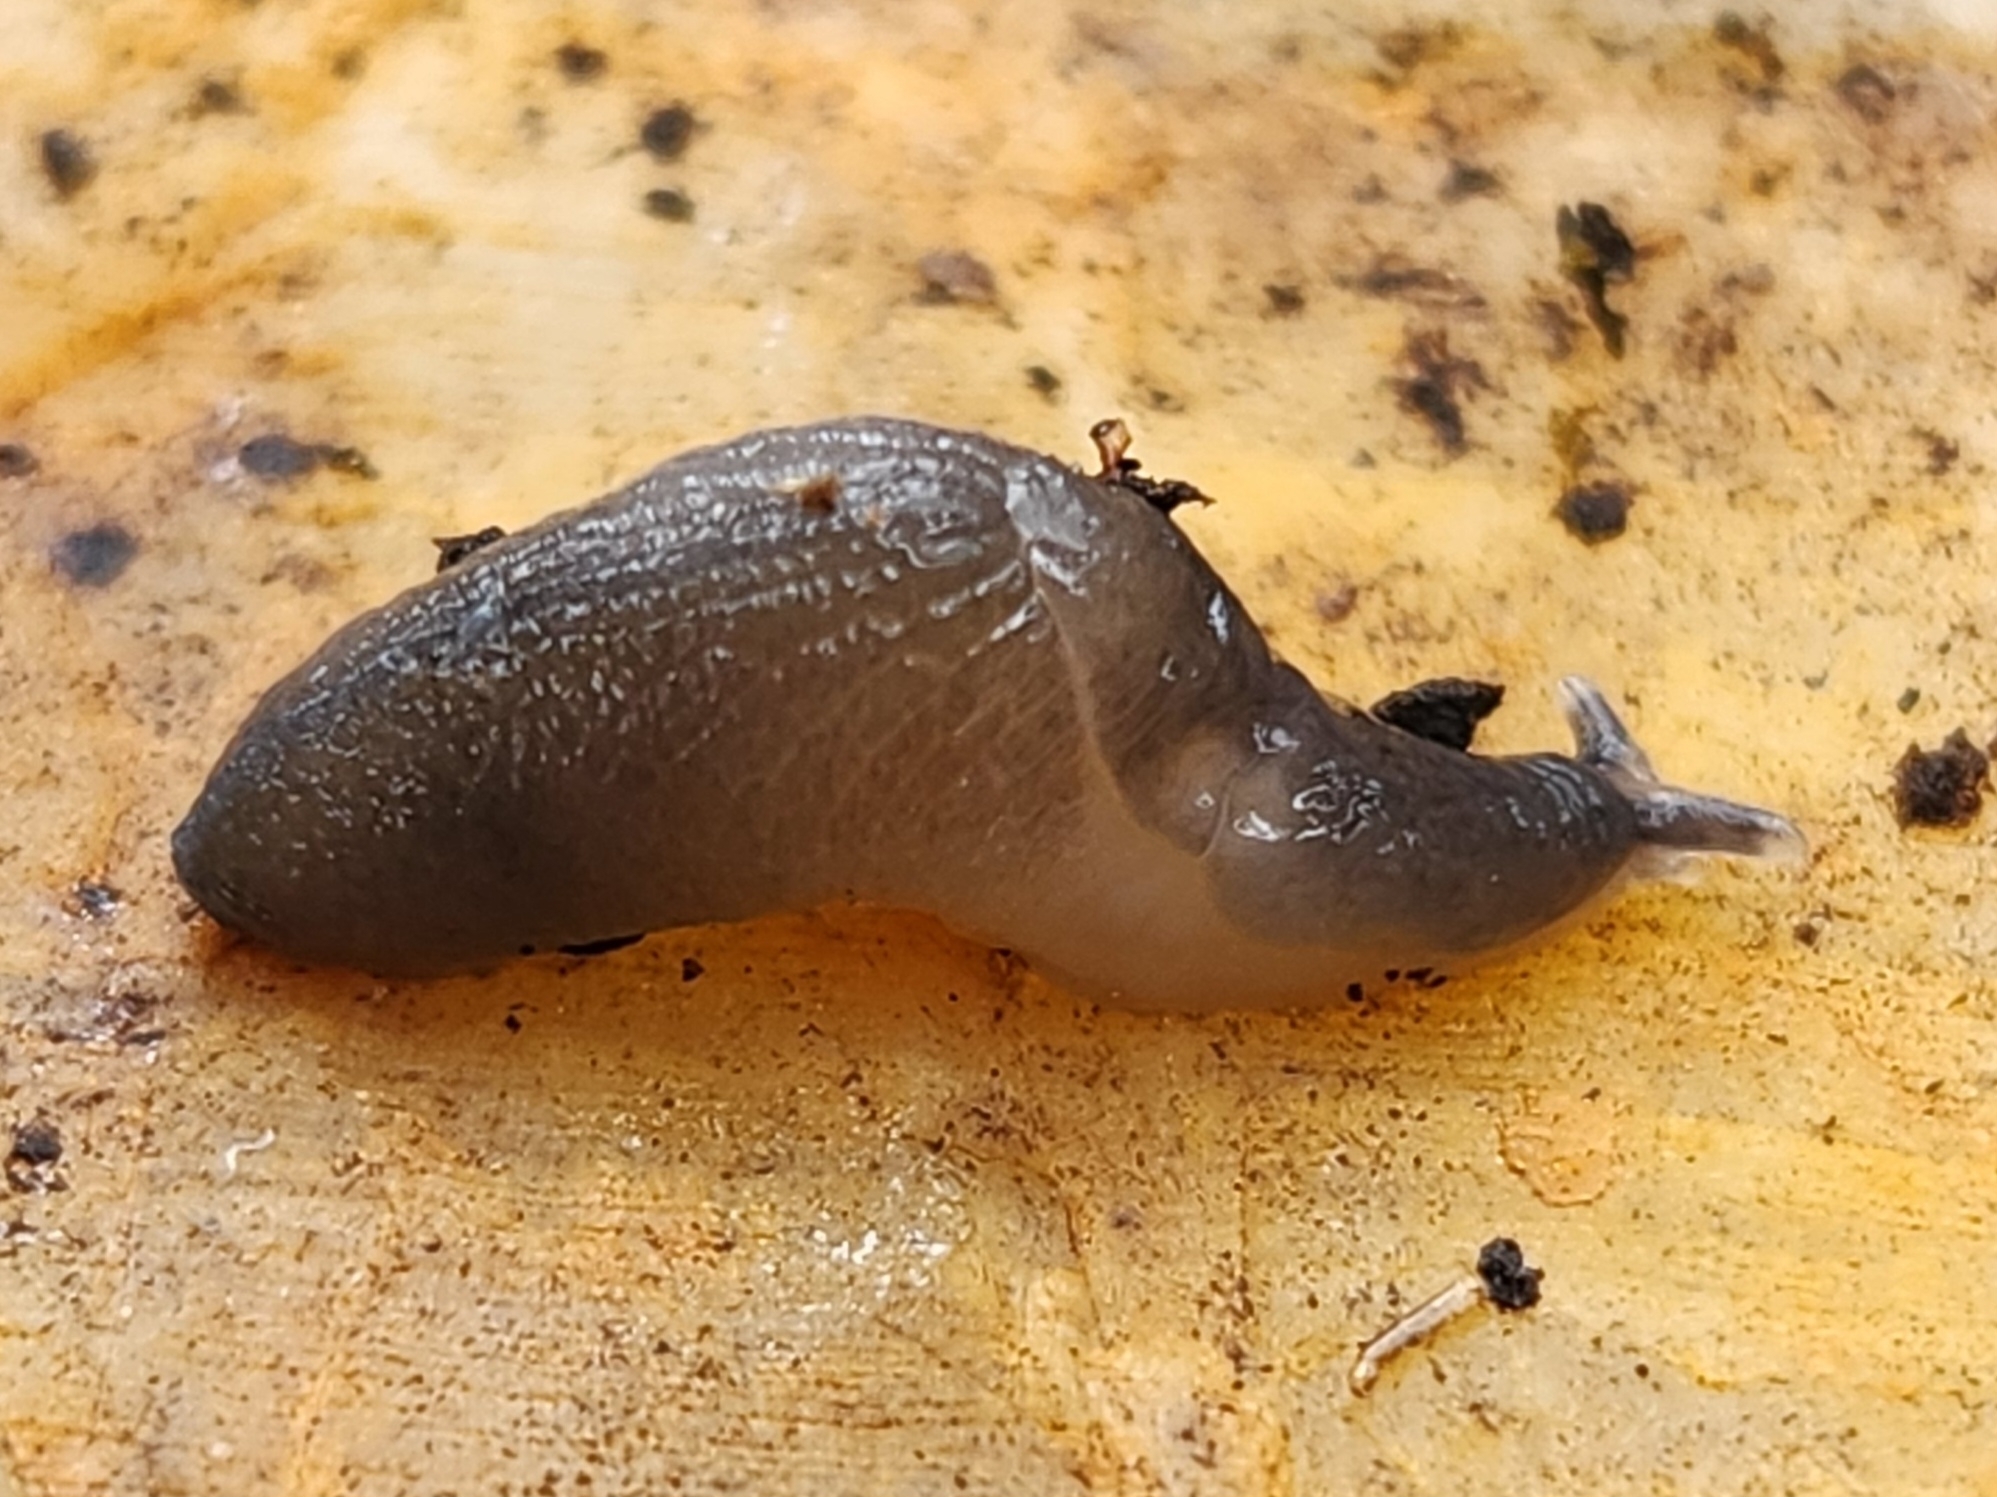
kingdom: Animalia
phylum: Mollusca
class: Gastropoda
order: Stylommatophora
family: Boettgerillidae
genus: Boettgerilla
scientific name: Boettgerilla pallens
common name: Worm slug
